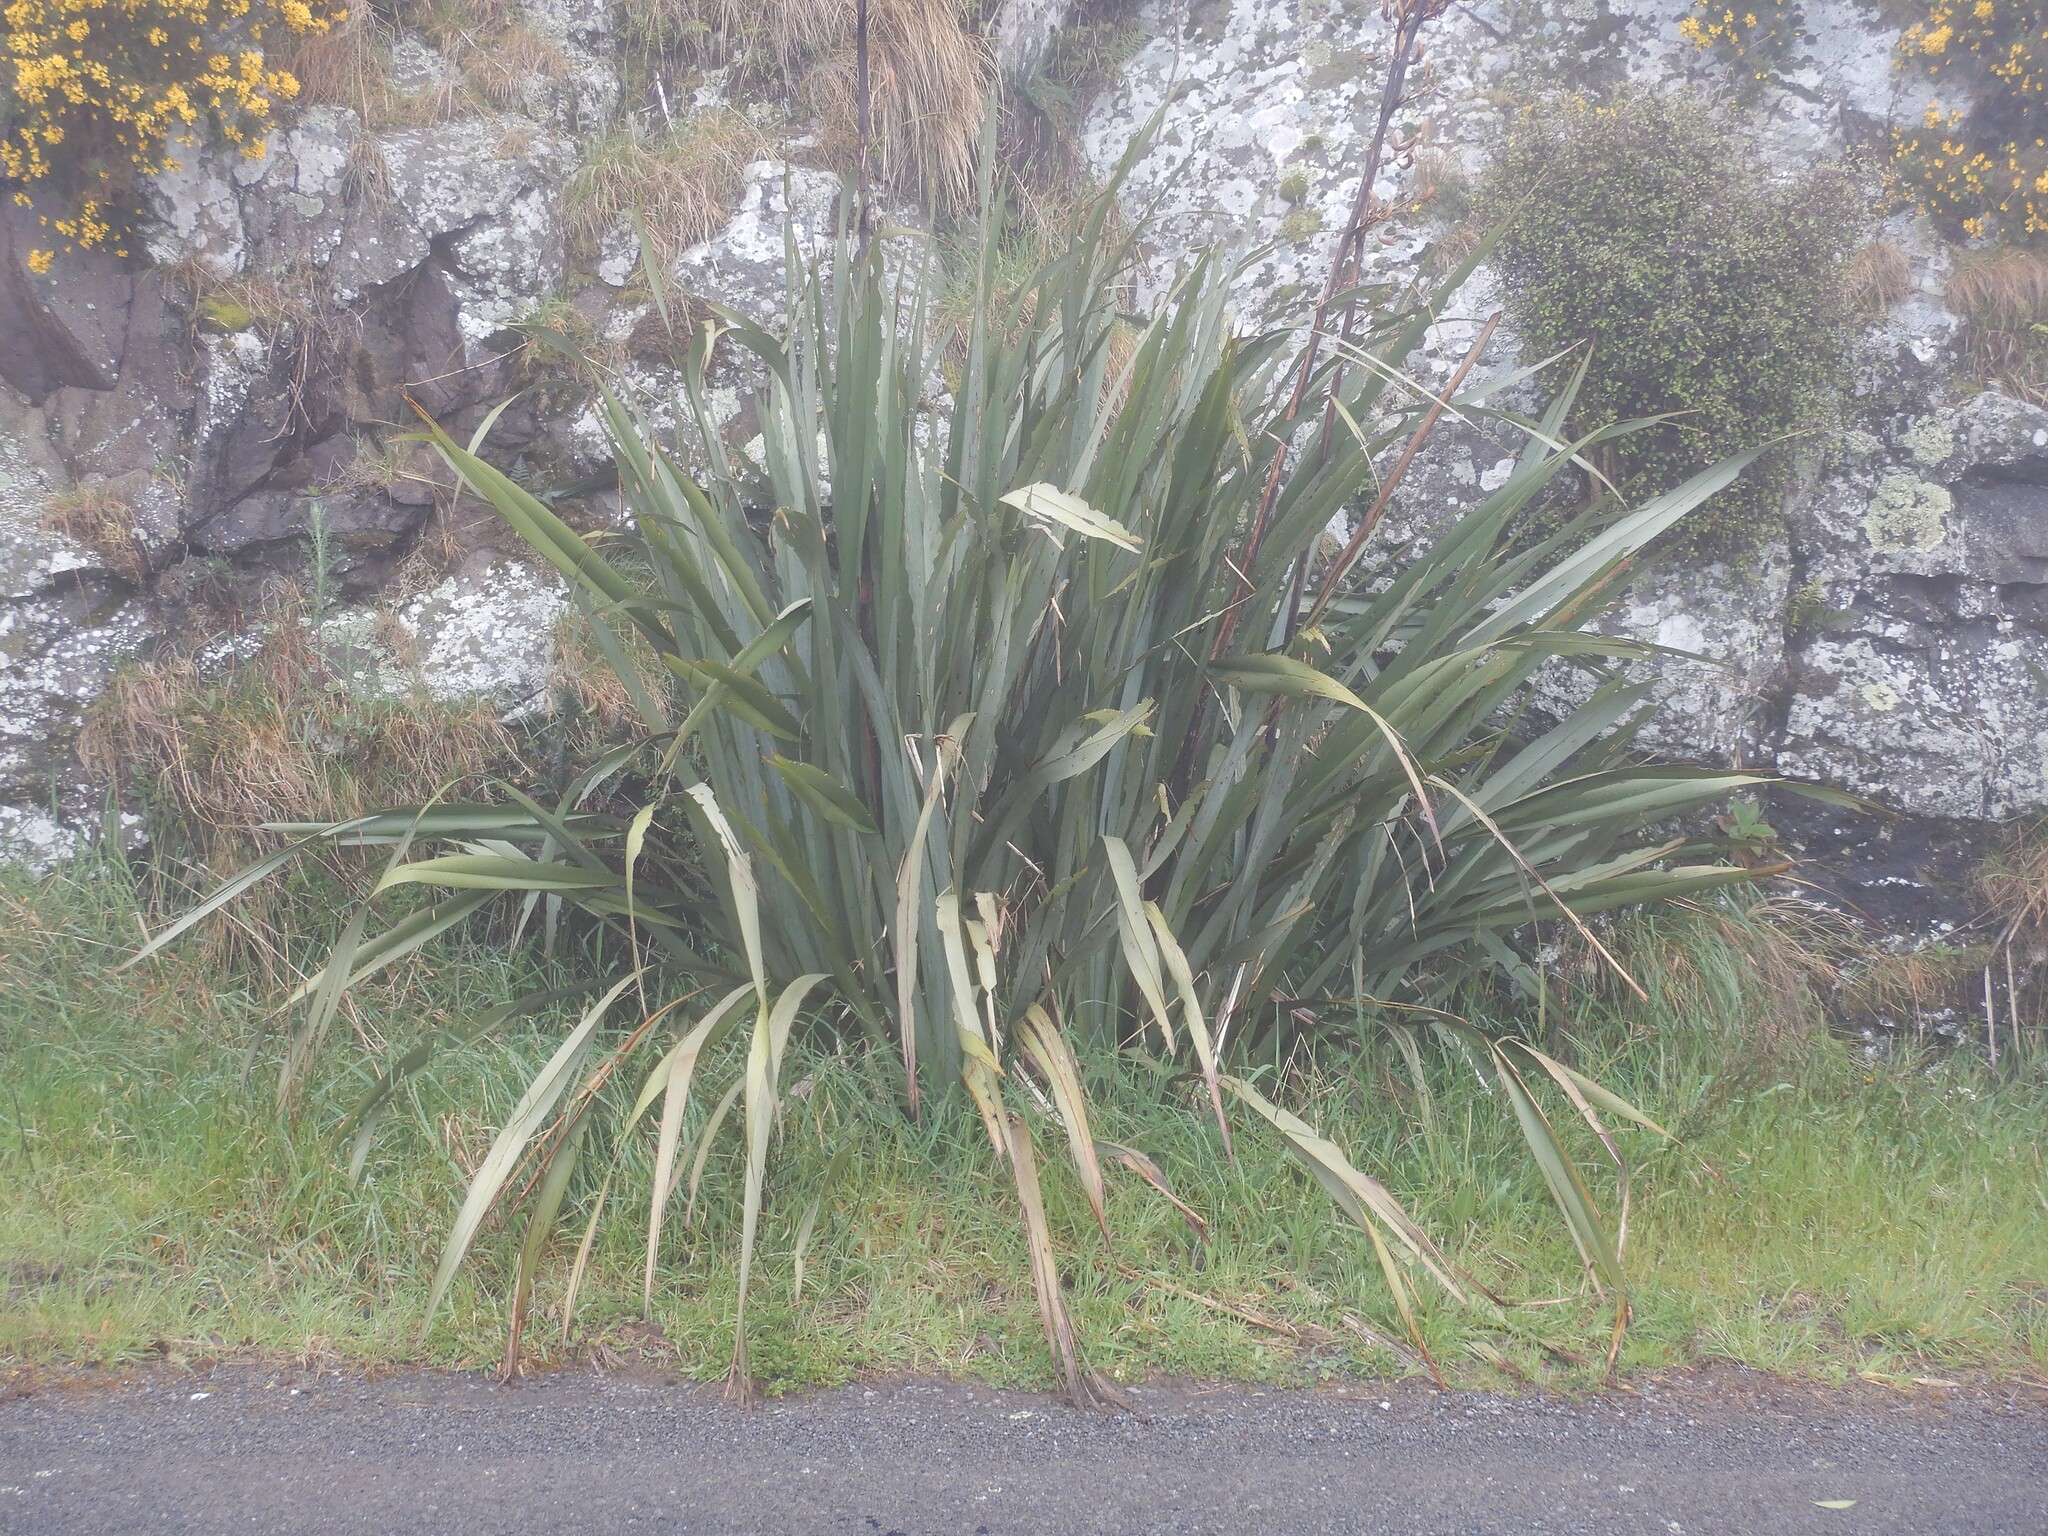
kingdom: Plantae
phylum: Tracheophyta
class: Liliopsida
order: Asparagales
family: Asphodelaceae
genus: Phormium
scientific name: Phormium tenax
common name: New zealand flax
